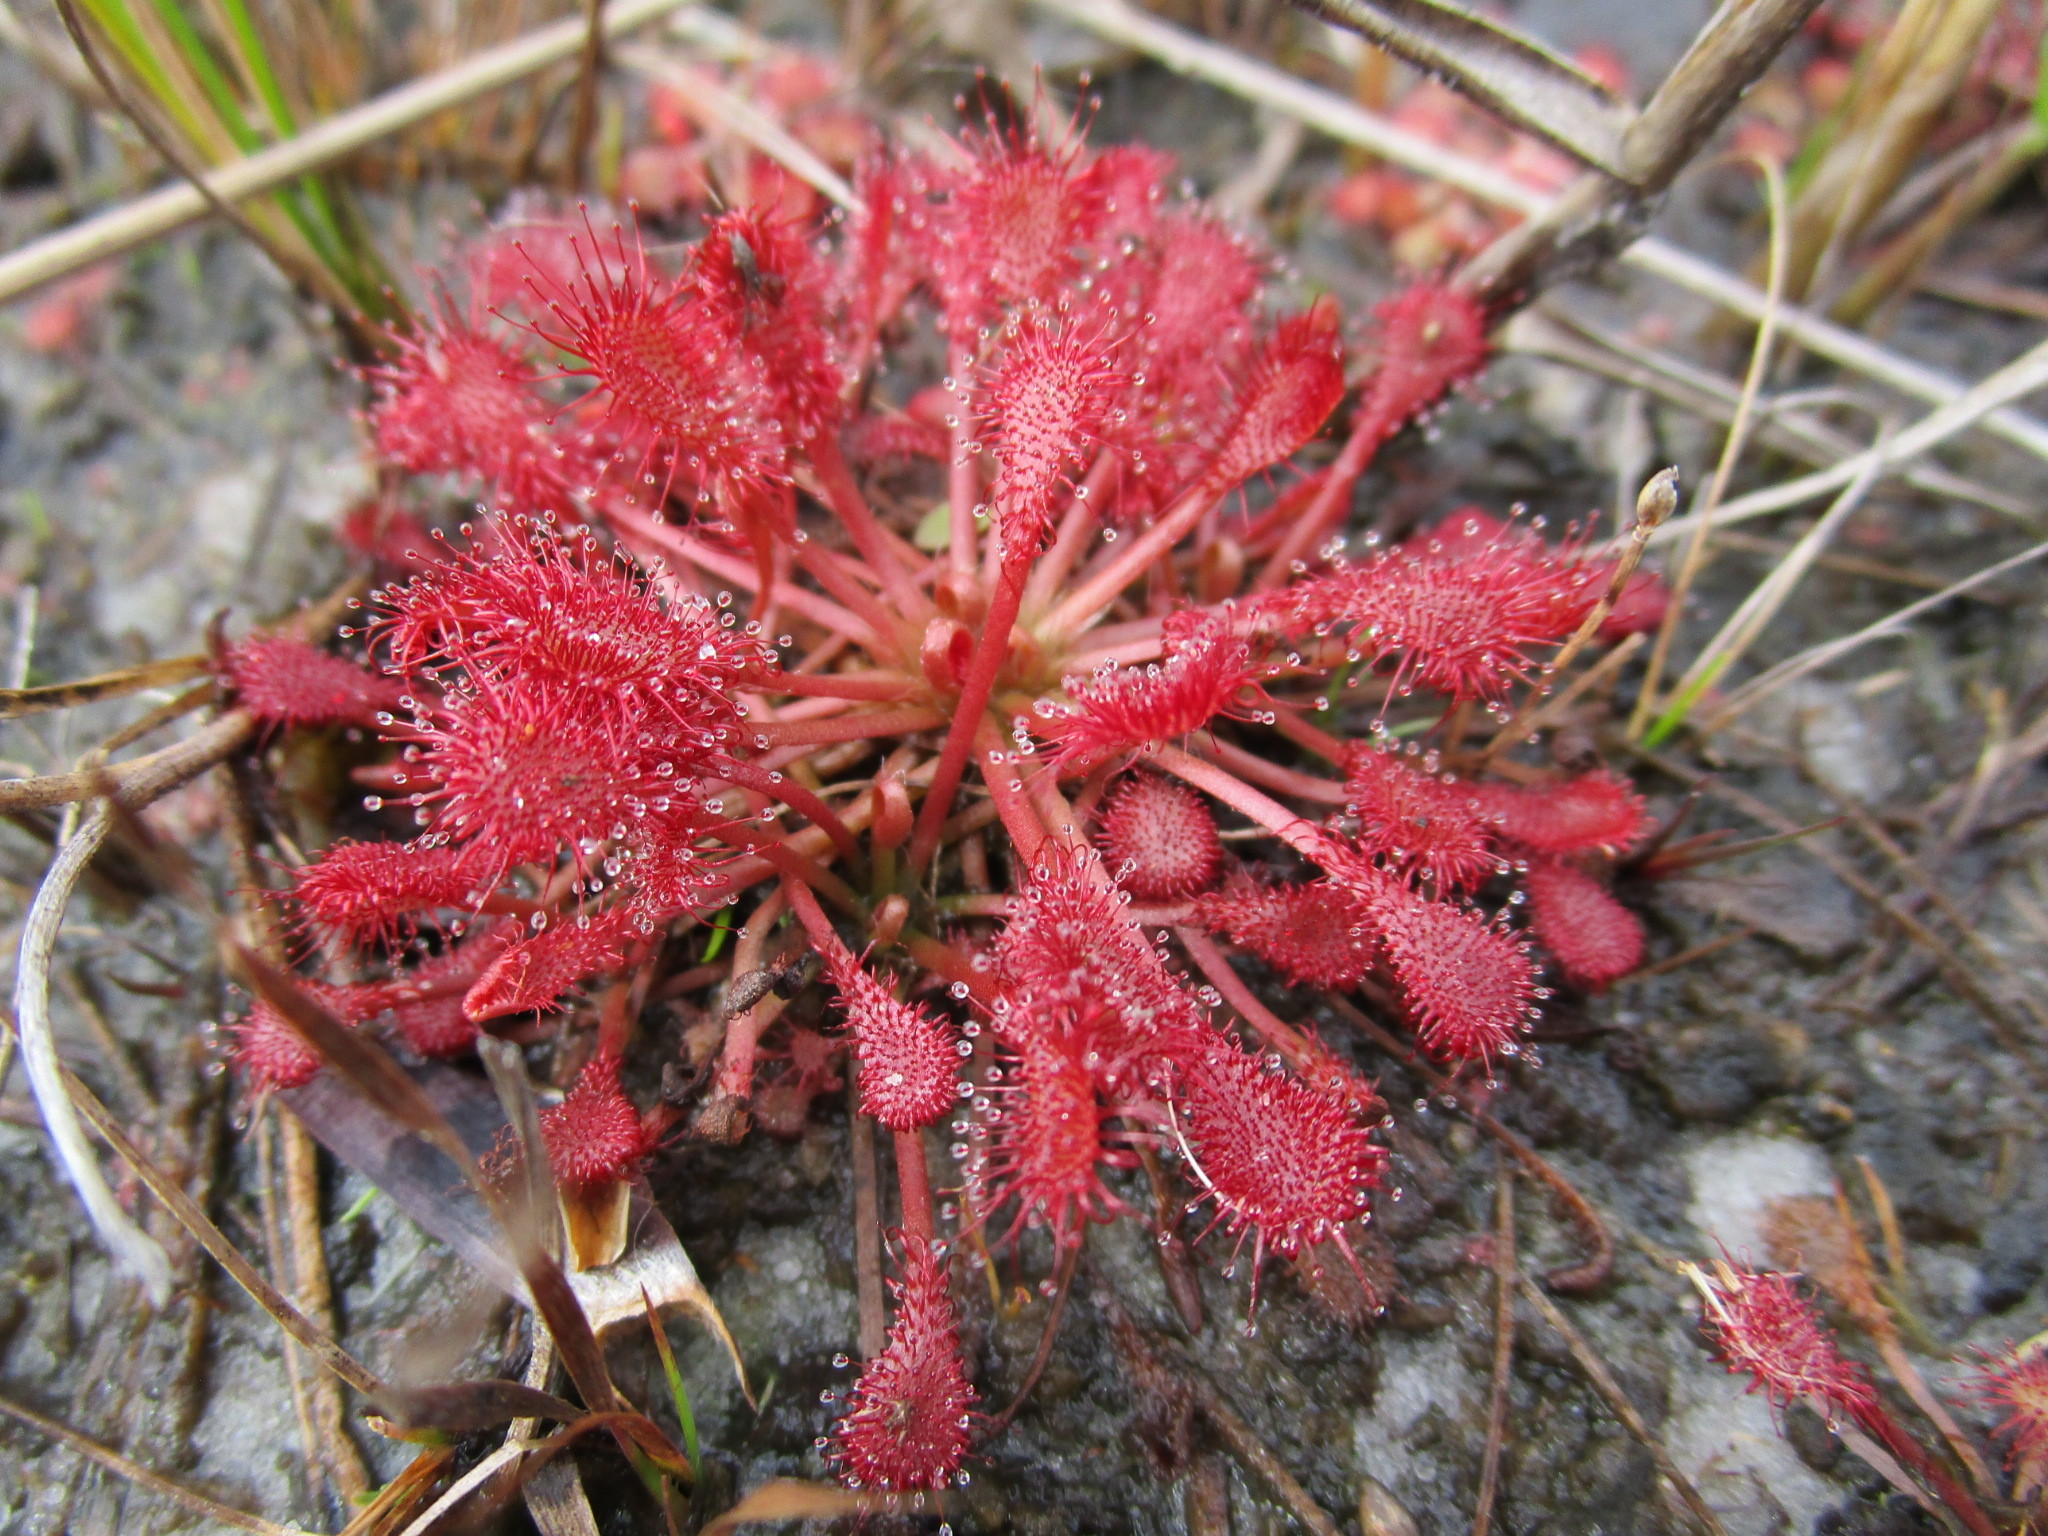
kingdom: Plantae
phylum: Tracheophyta
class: Magnoliopsida
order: Caryophyllales
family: Droseraceae
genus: Drosera
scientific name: Drosera capillaris
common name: Pink sundew
